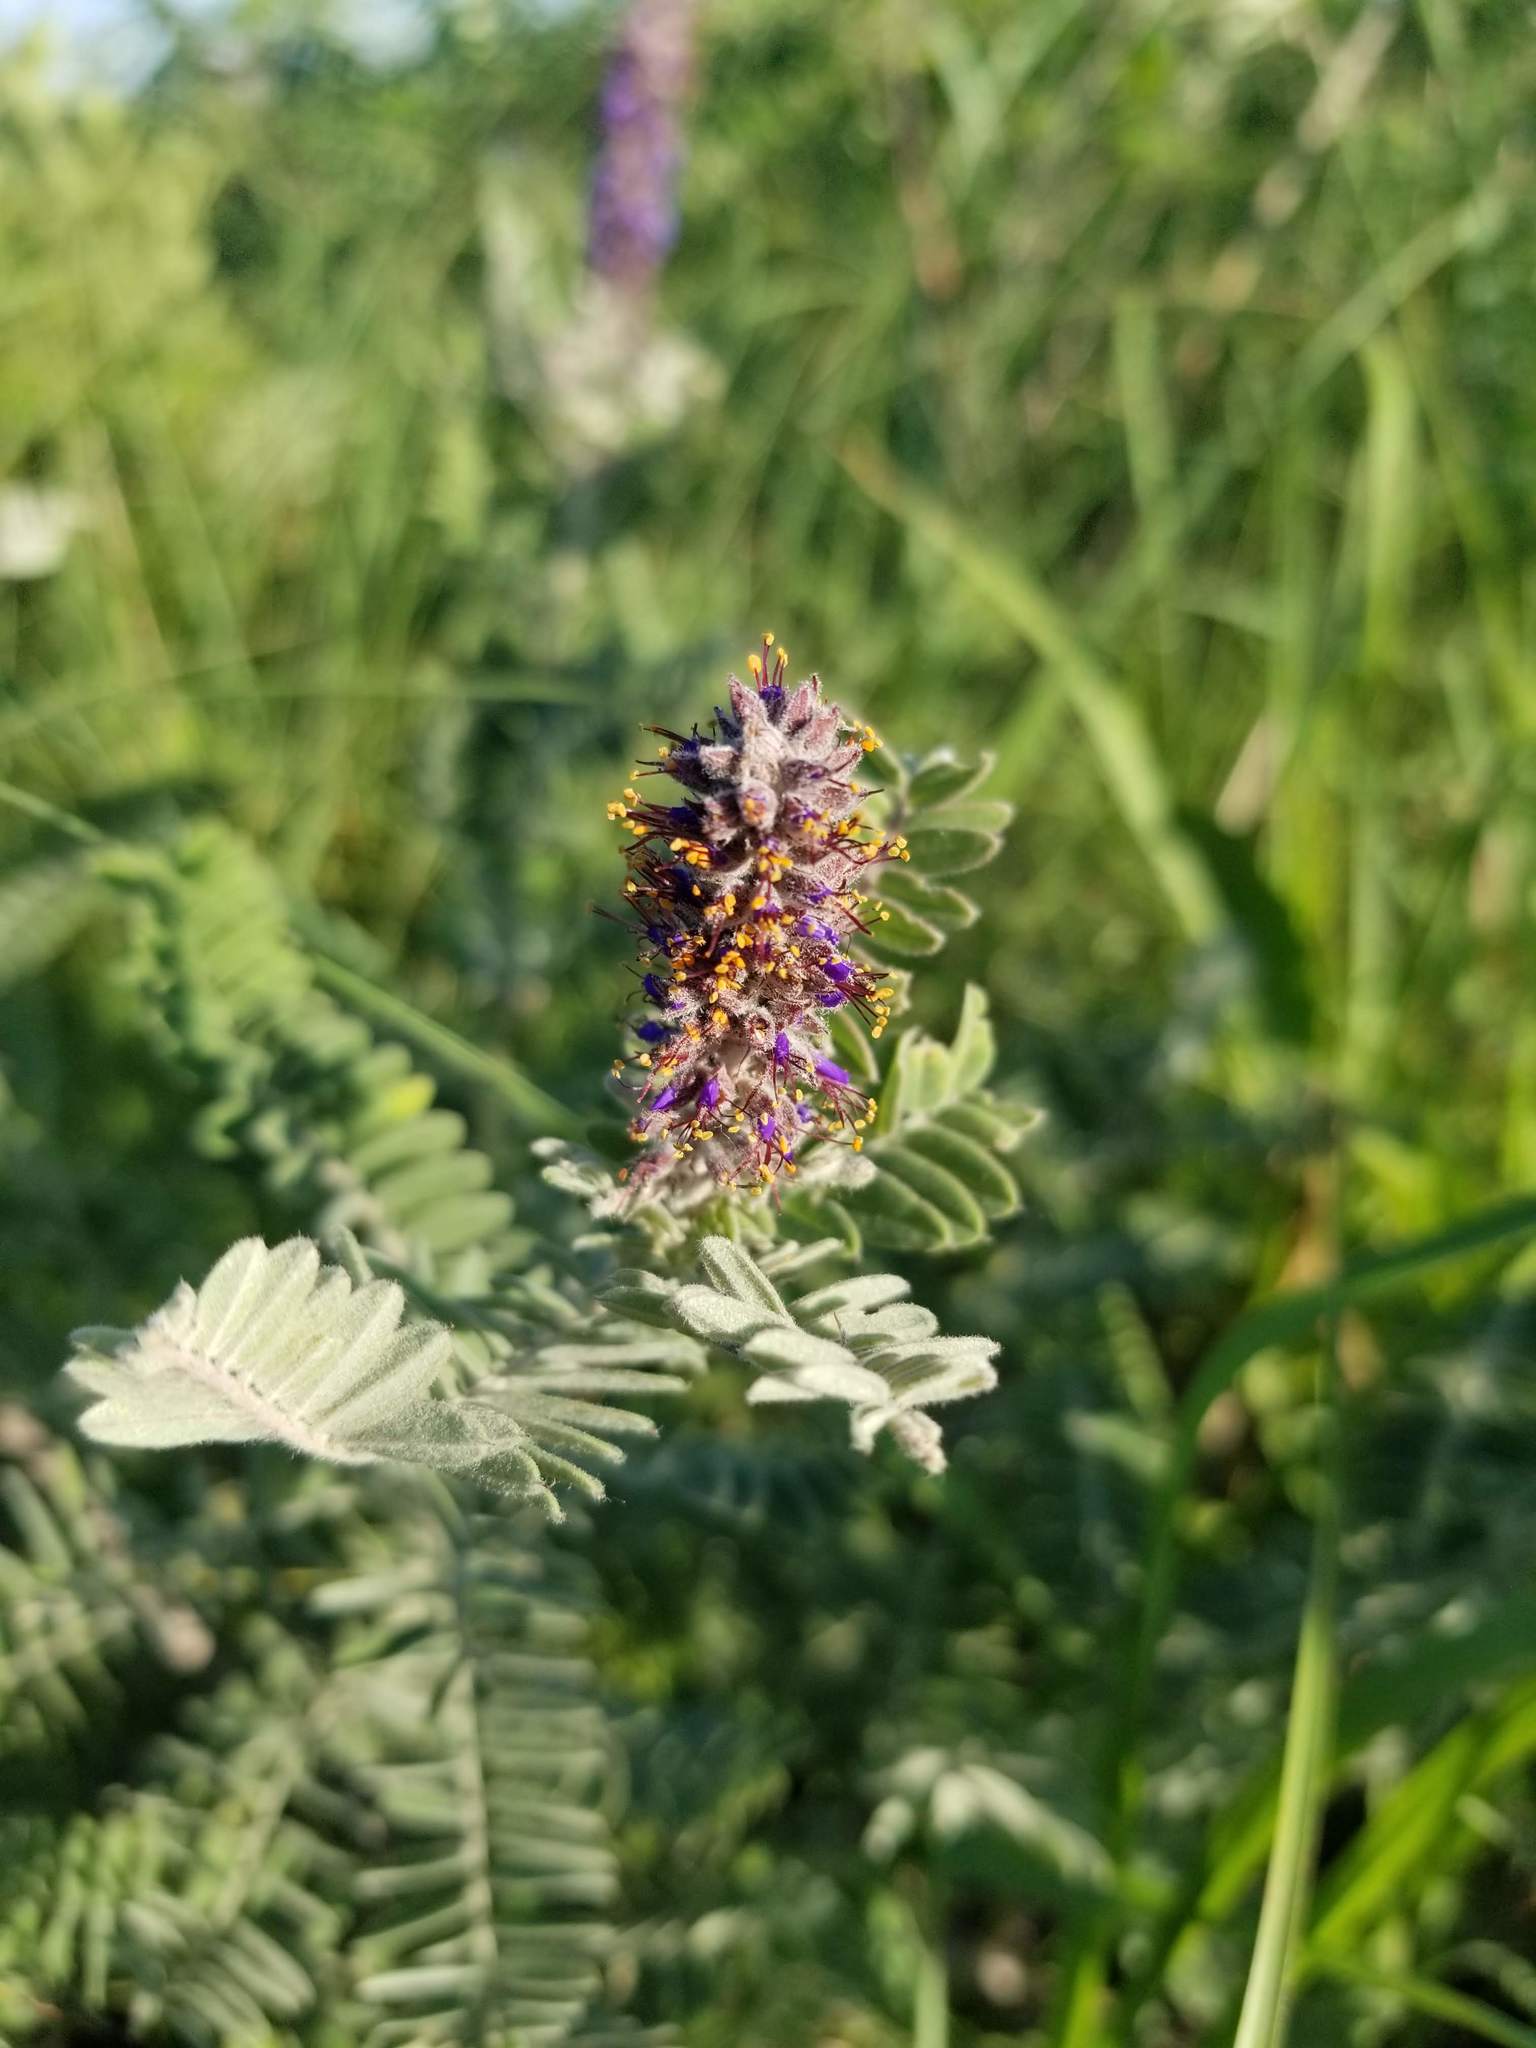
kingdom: Plantae
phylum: Tracheophyta
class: Magnoliopsida
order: Fabales
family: Fabaceae
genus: Amorpha
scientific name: Amorpha canescens
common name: Leadplant
